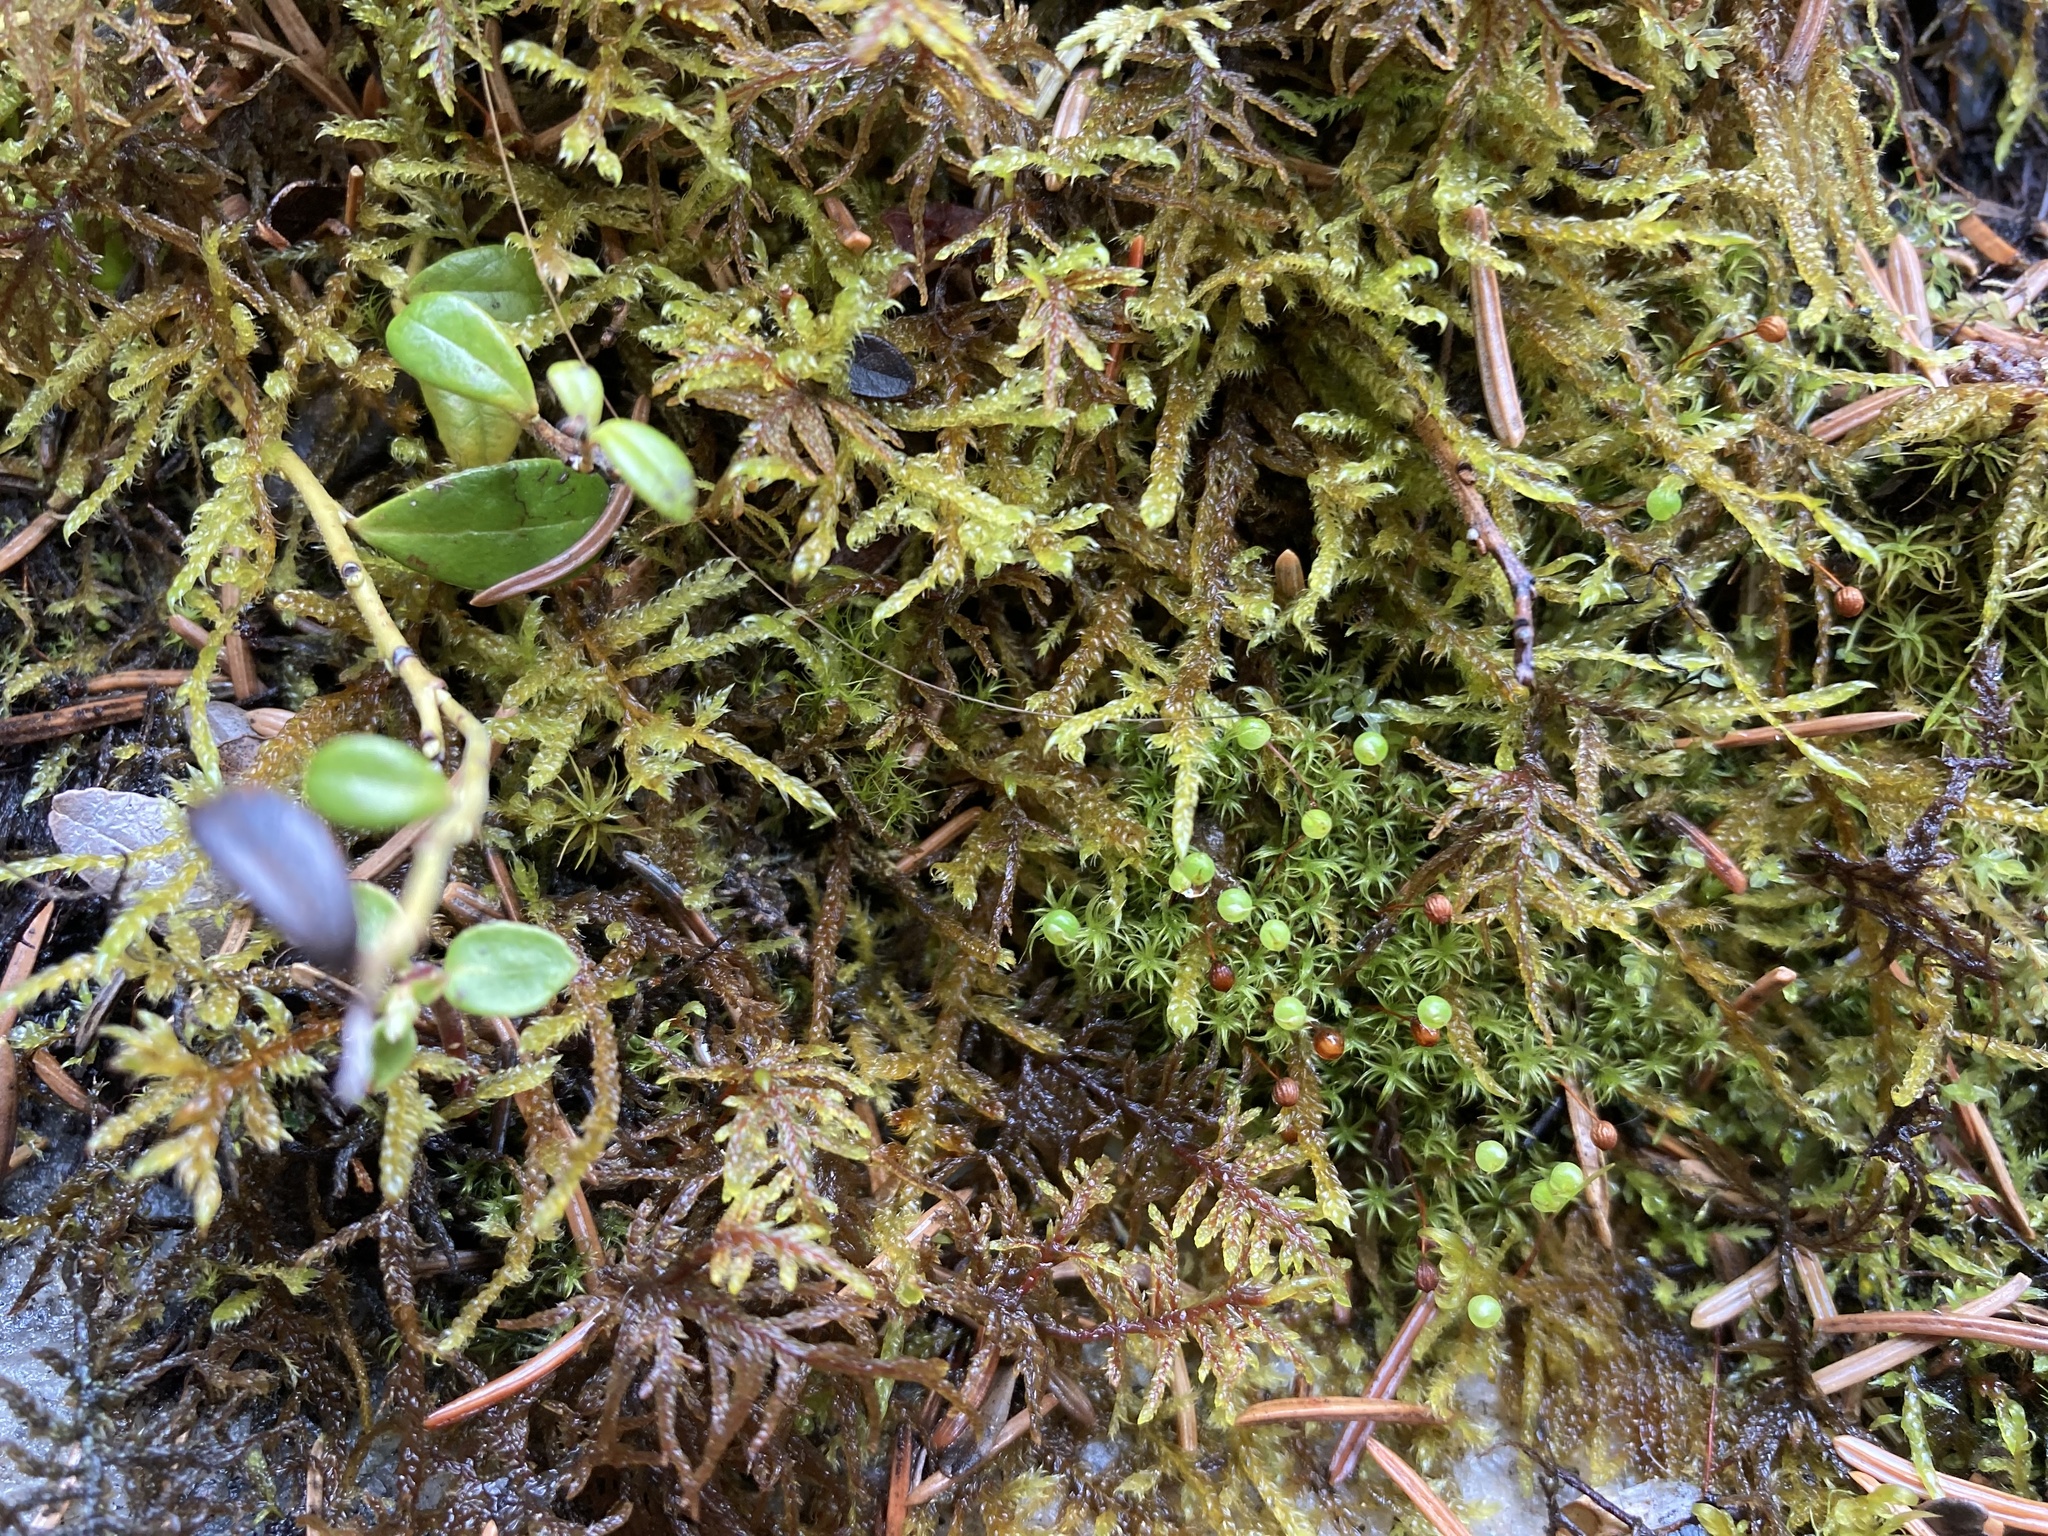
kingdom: Plantae
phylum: Bryophyta
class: Bryopsida
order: Bartramiales
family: Bartramiaceae
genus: Plagiopus
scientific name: Plagiopus oederianus
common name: Oeder's apple moss
